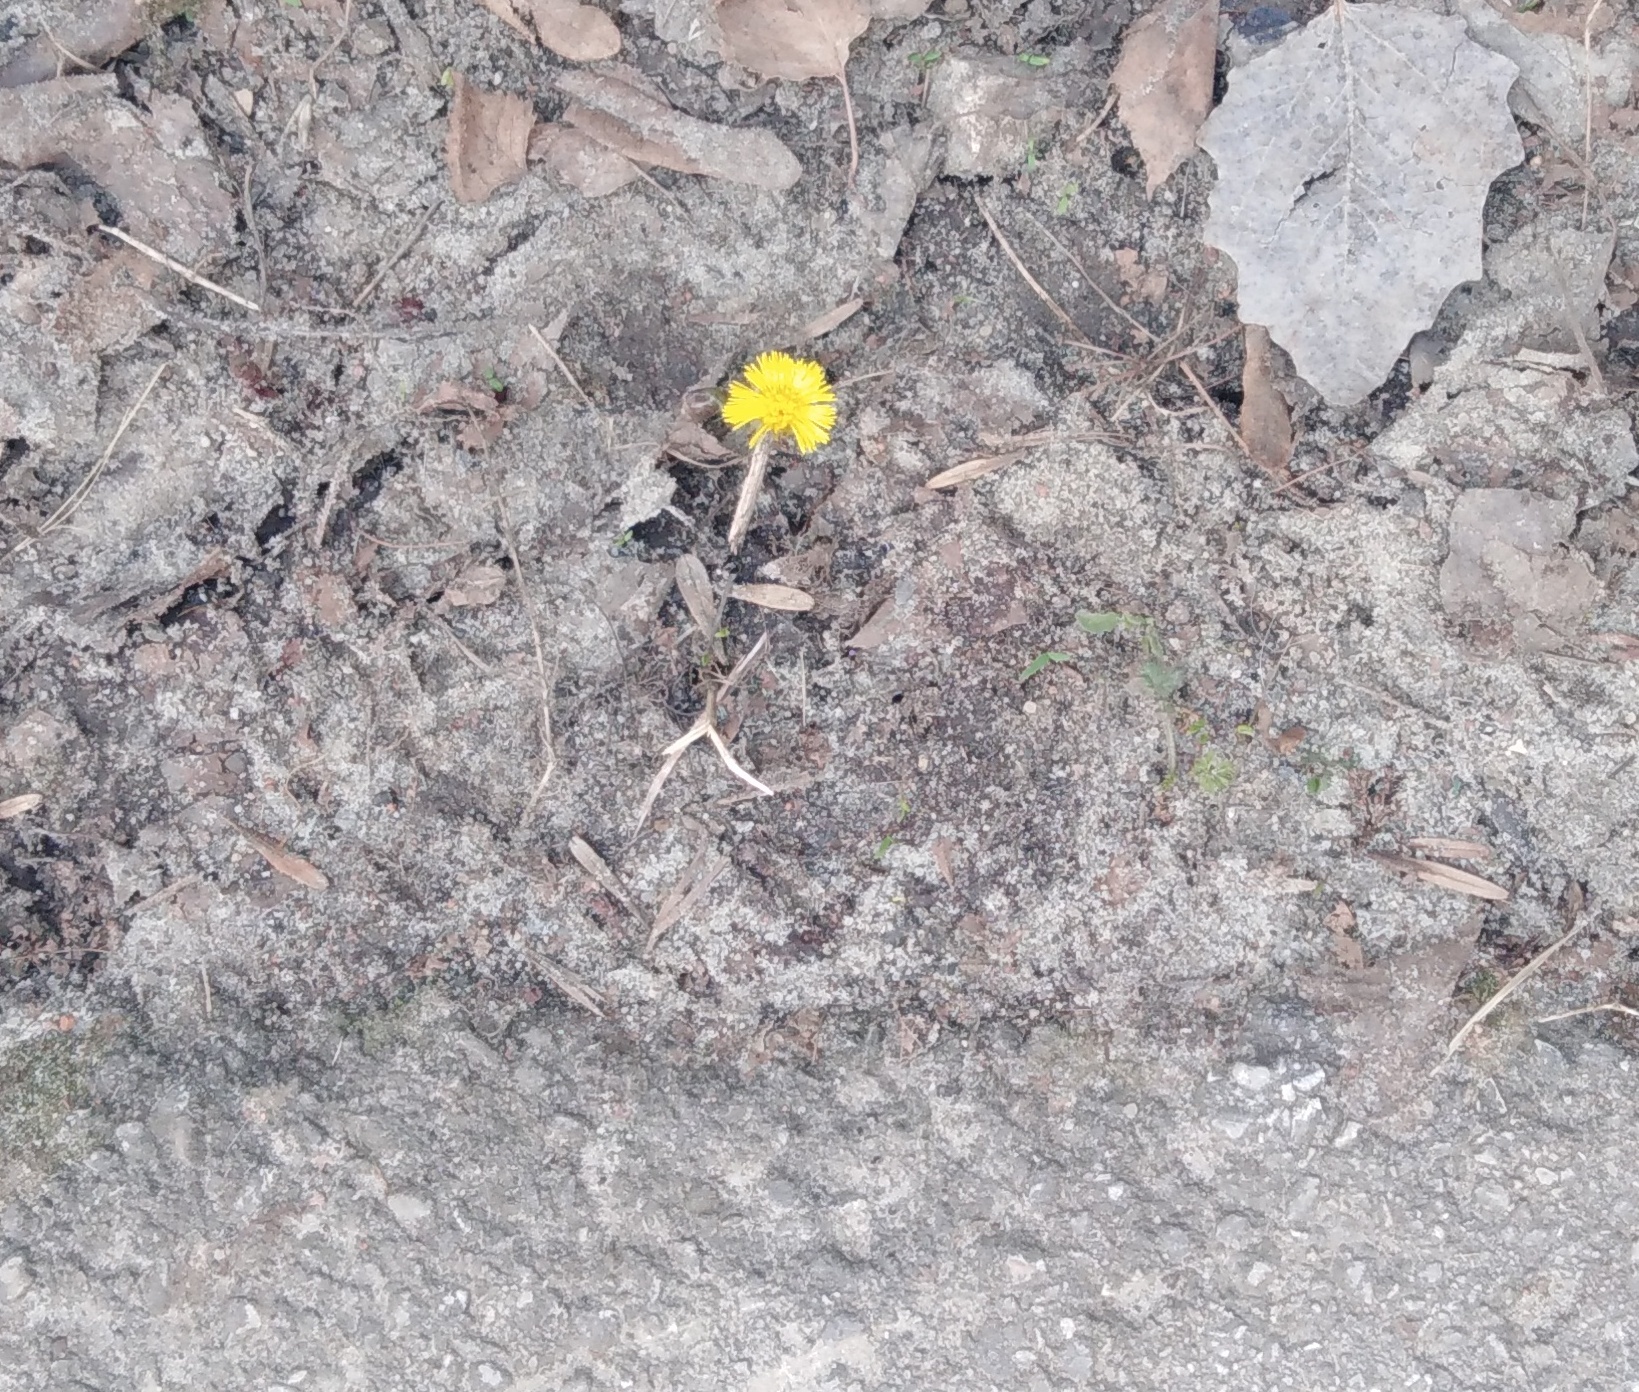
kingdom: Plantae
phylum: Tracheophyta
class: Magnoliopsida
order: Asterales
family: Asteraceae
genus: Tussilago
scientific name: Tussilago farfara
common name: Coltsfoot
